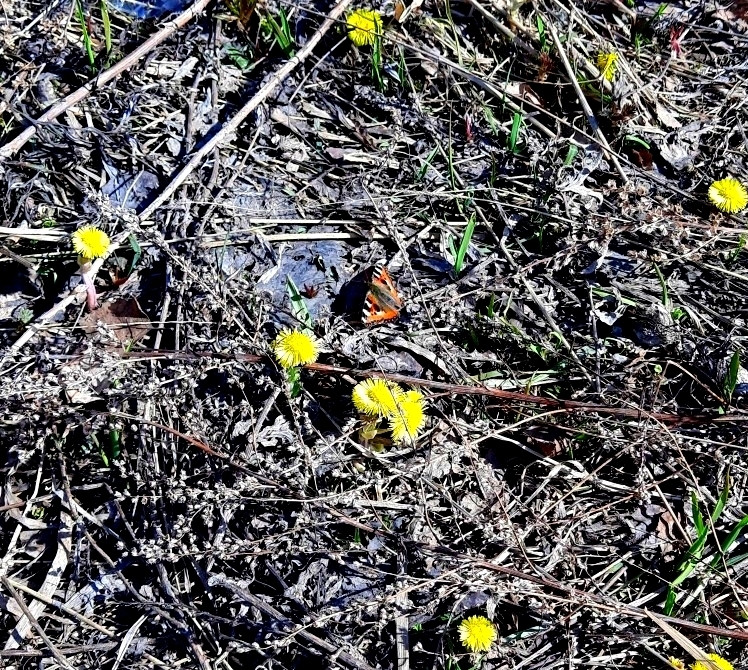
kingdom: Animalia
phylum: Arthropoda
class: Insecta
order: Lepidoptera
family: Nymphalidae
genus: Aglais
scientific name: Aglais urticae
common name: Small tortoiseshell
